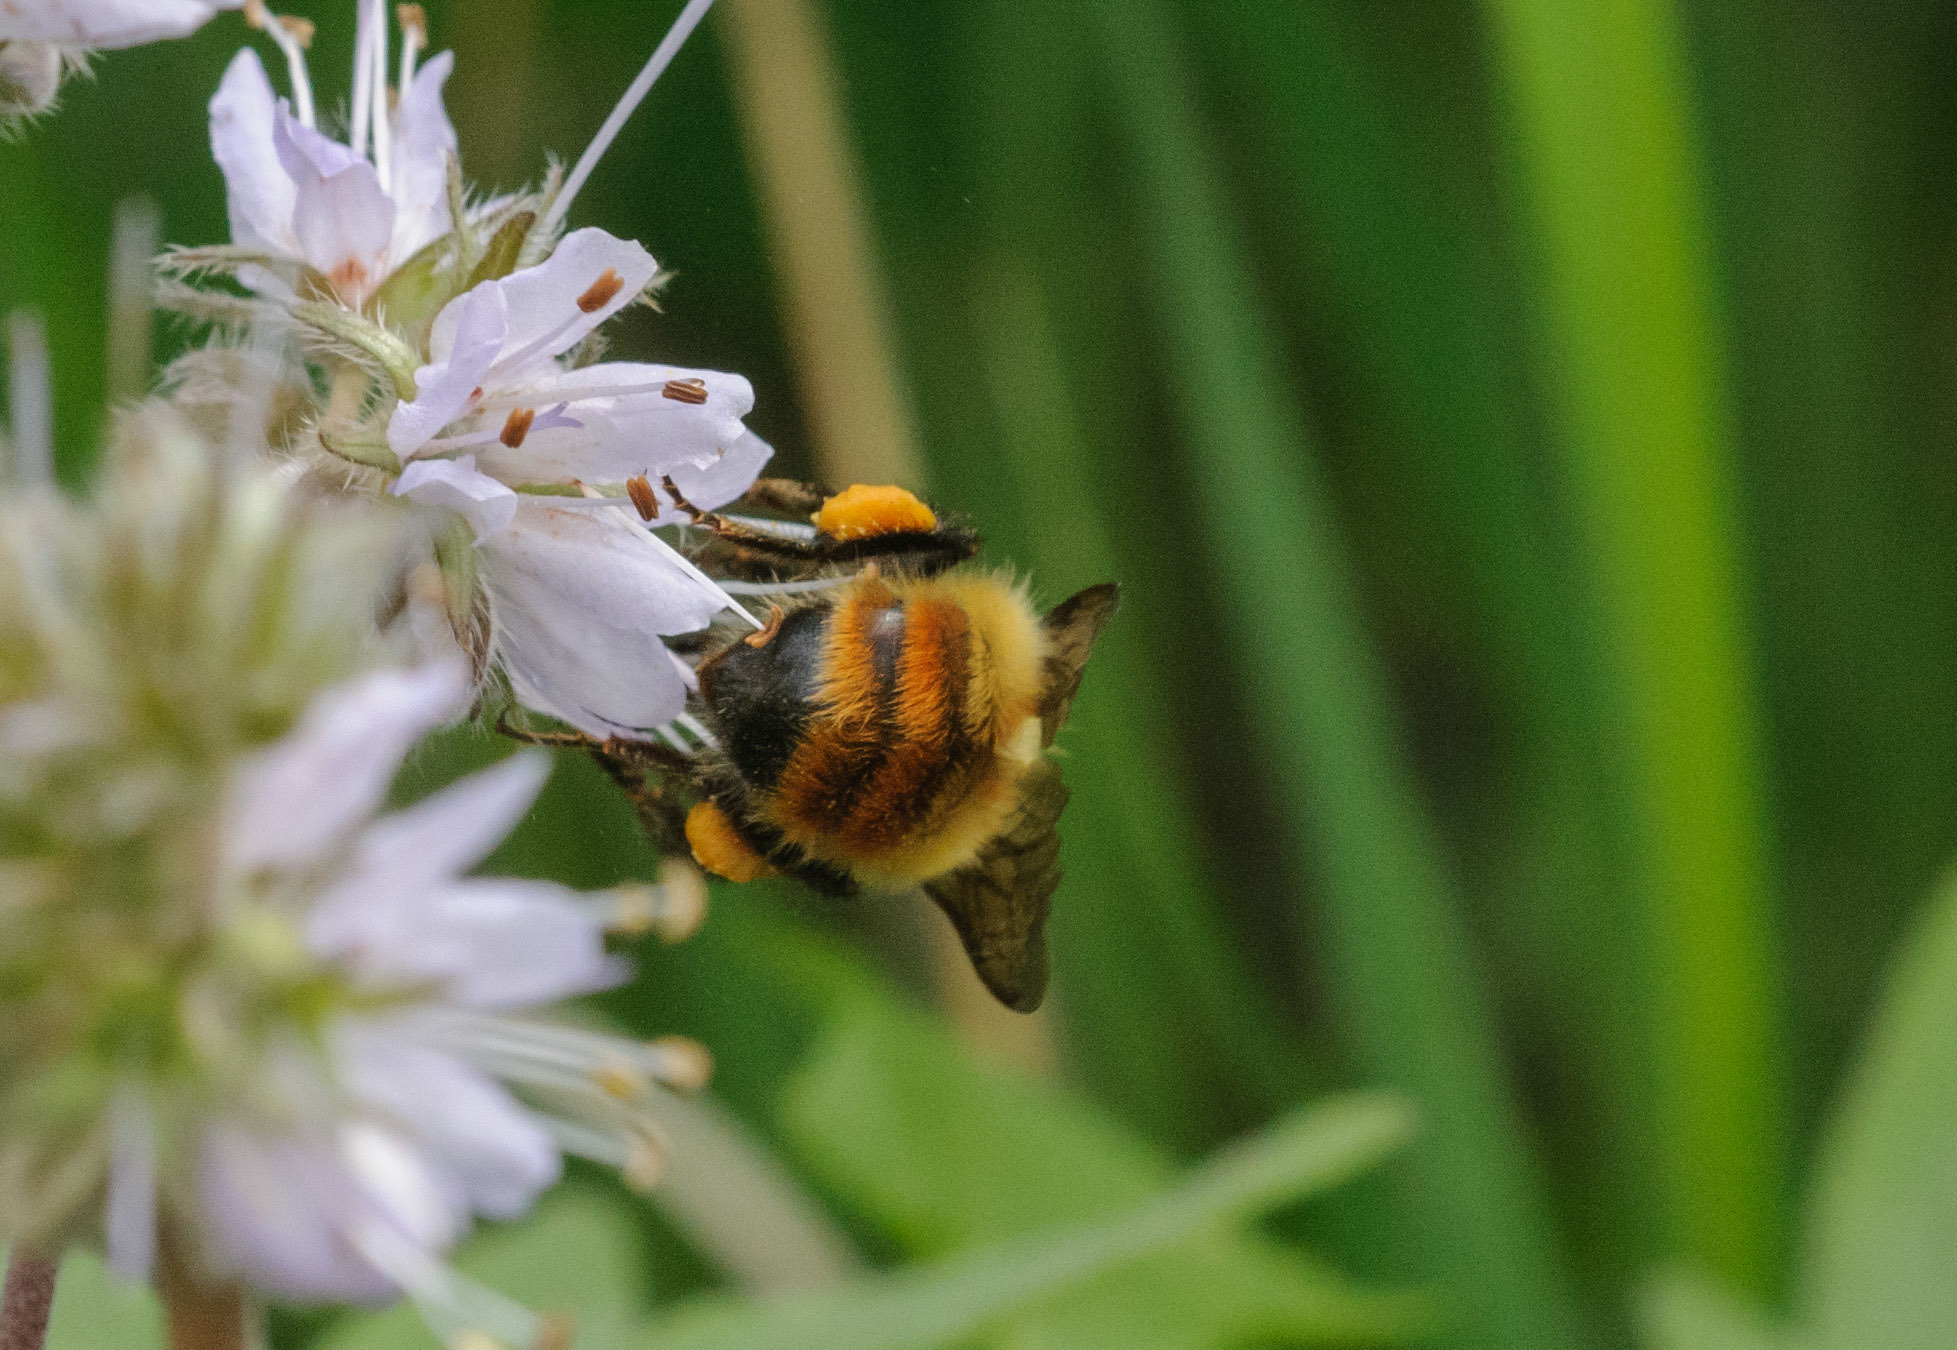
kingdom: Animalia
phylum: Arthropoda
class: Insecta
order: Hymenoptera
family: Apidae
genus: Bombus
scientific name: Bombus centralis
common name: Central bumble bee
